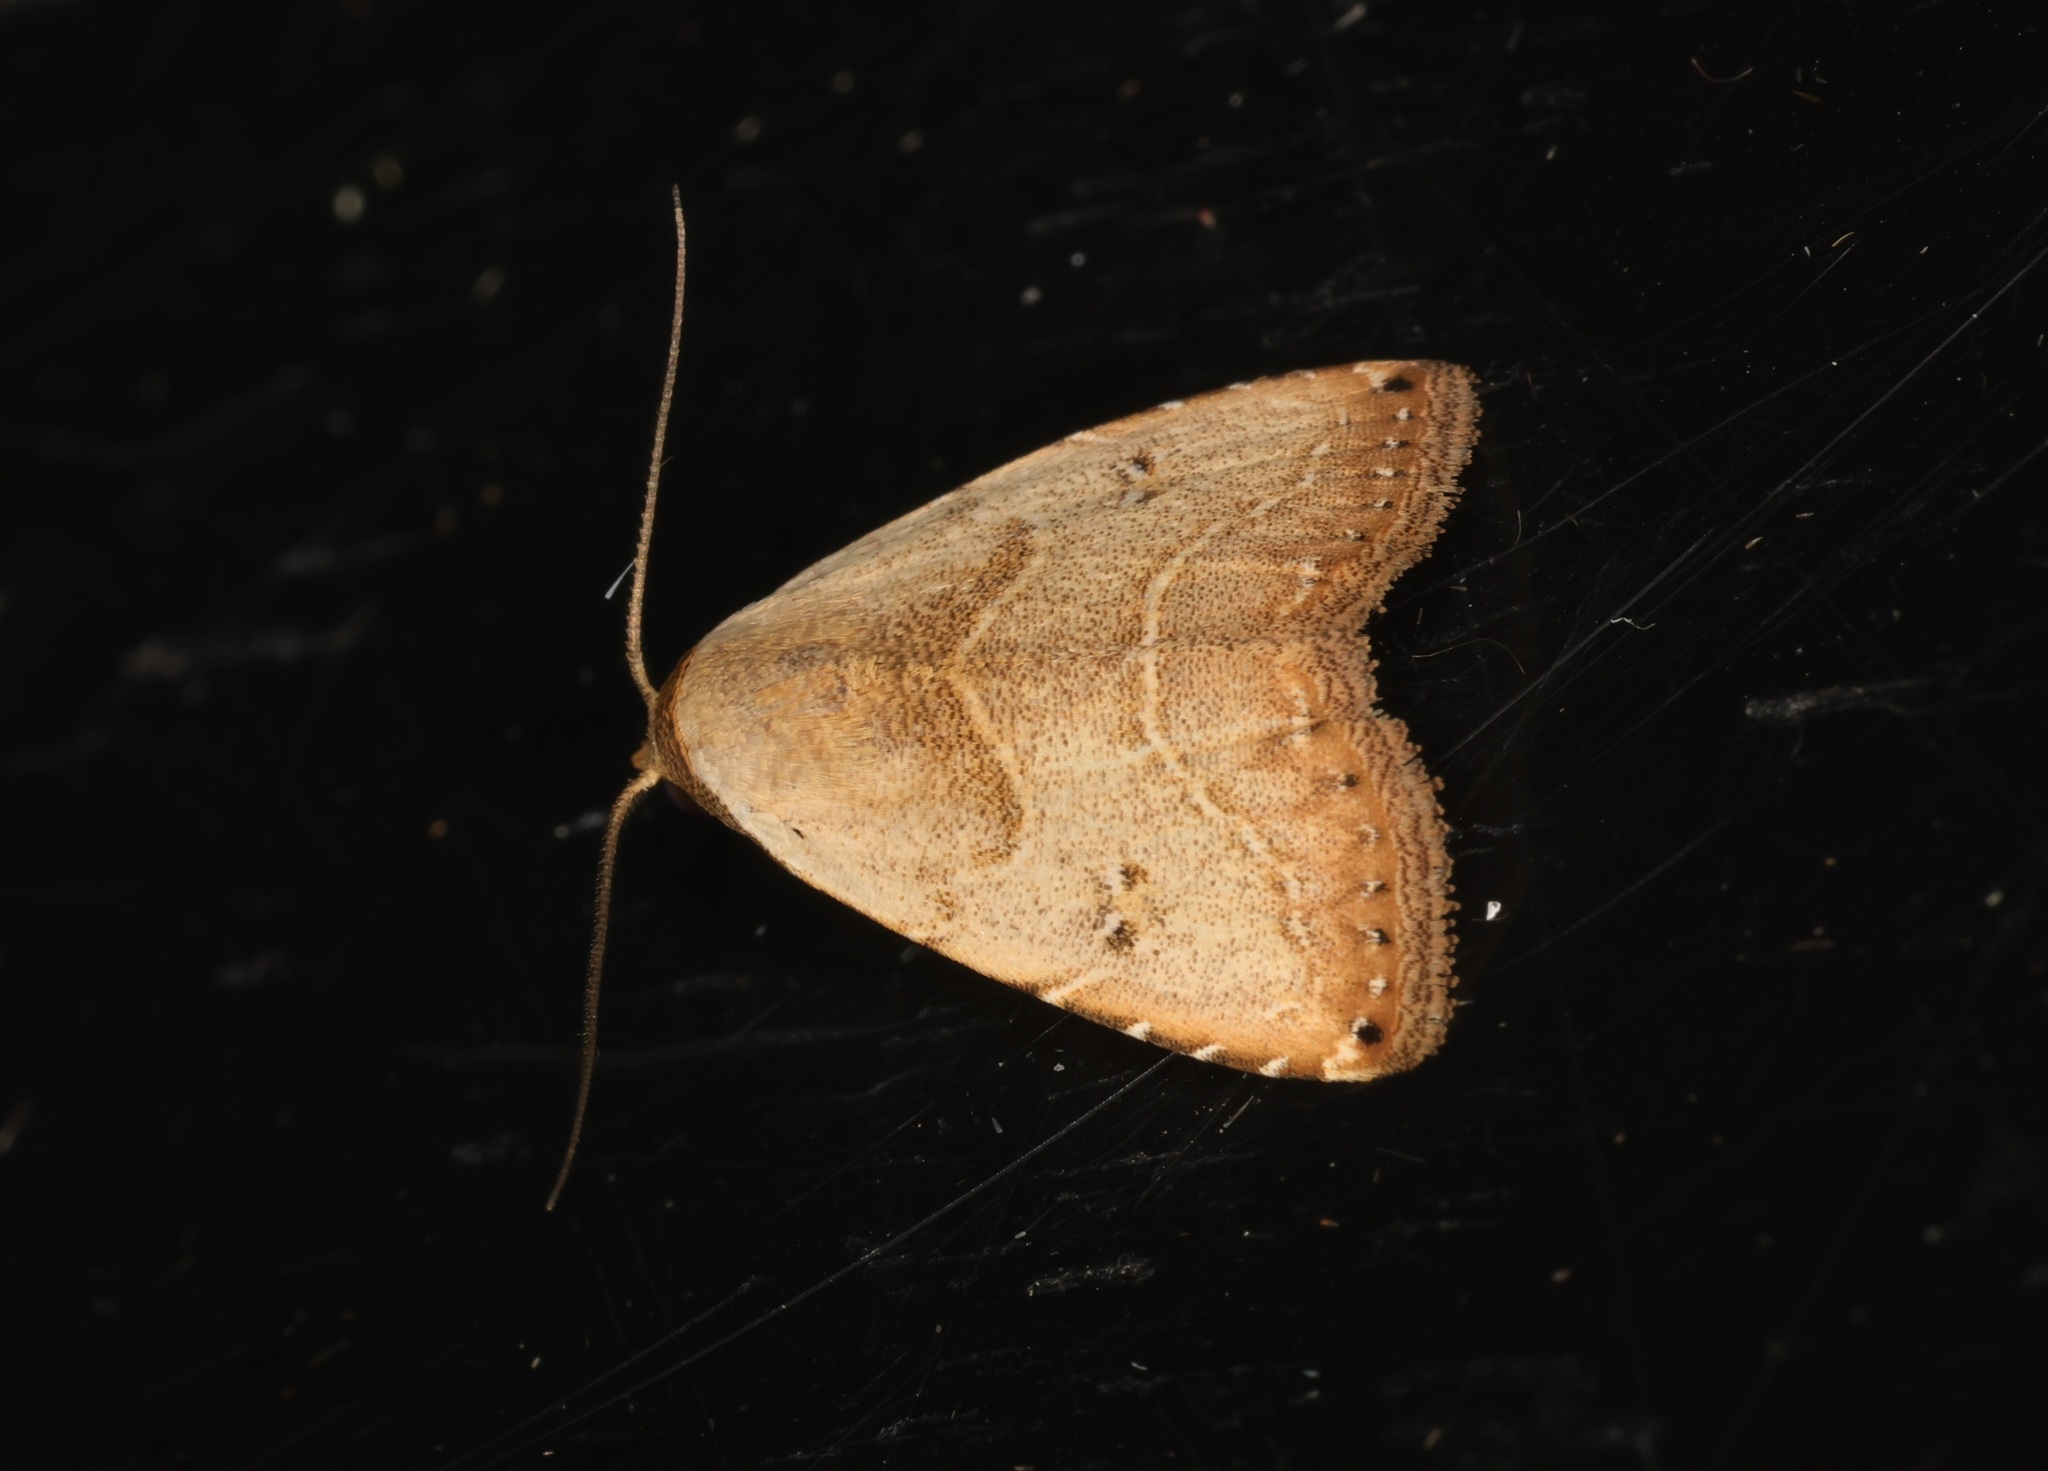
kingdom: Animalia
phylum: Arthropoda
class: Insecta
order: Lepidoptera
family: Erebidae
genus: Rivula
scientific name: Rivula basalis
